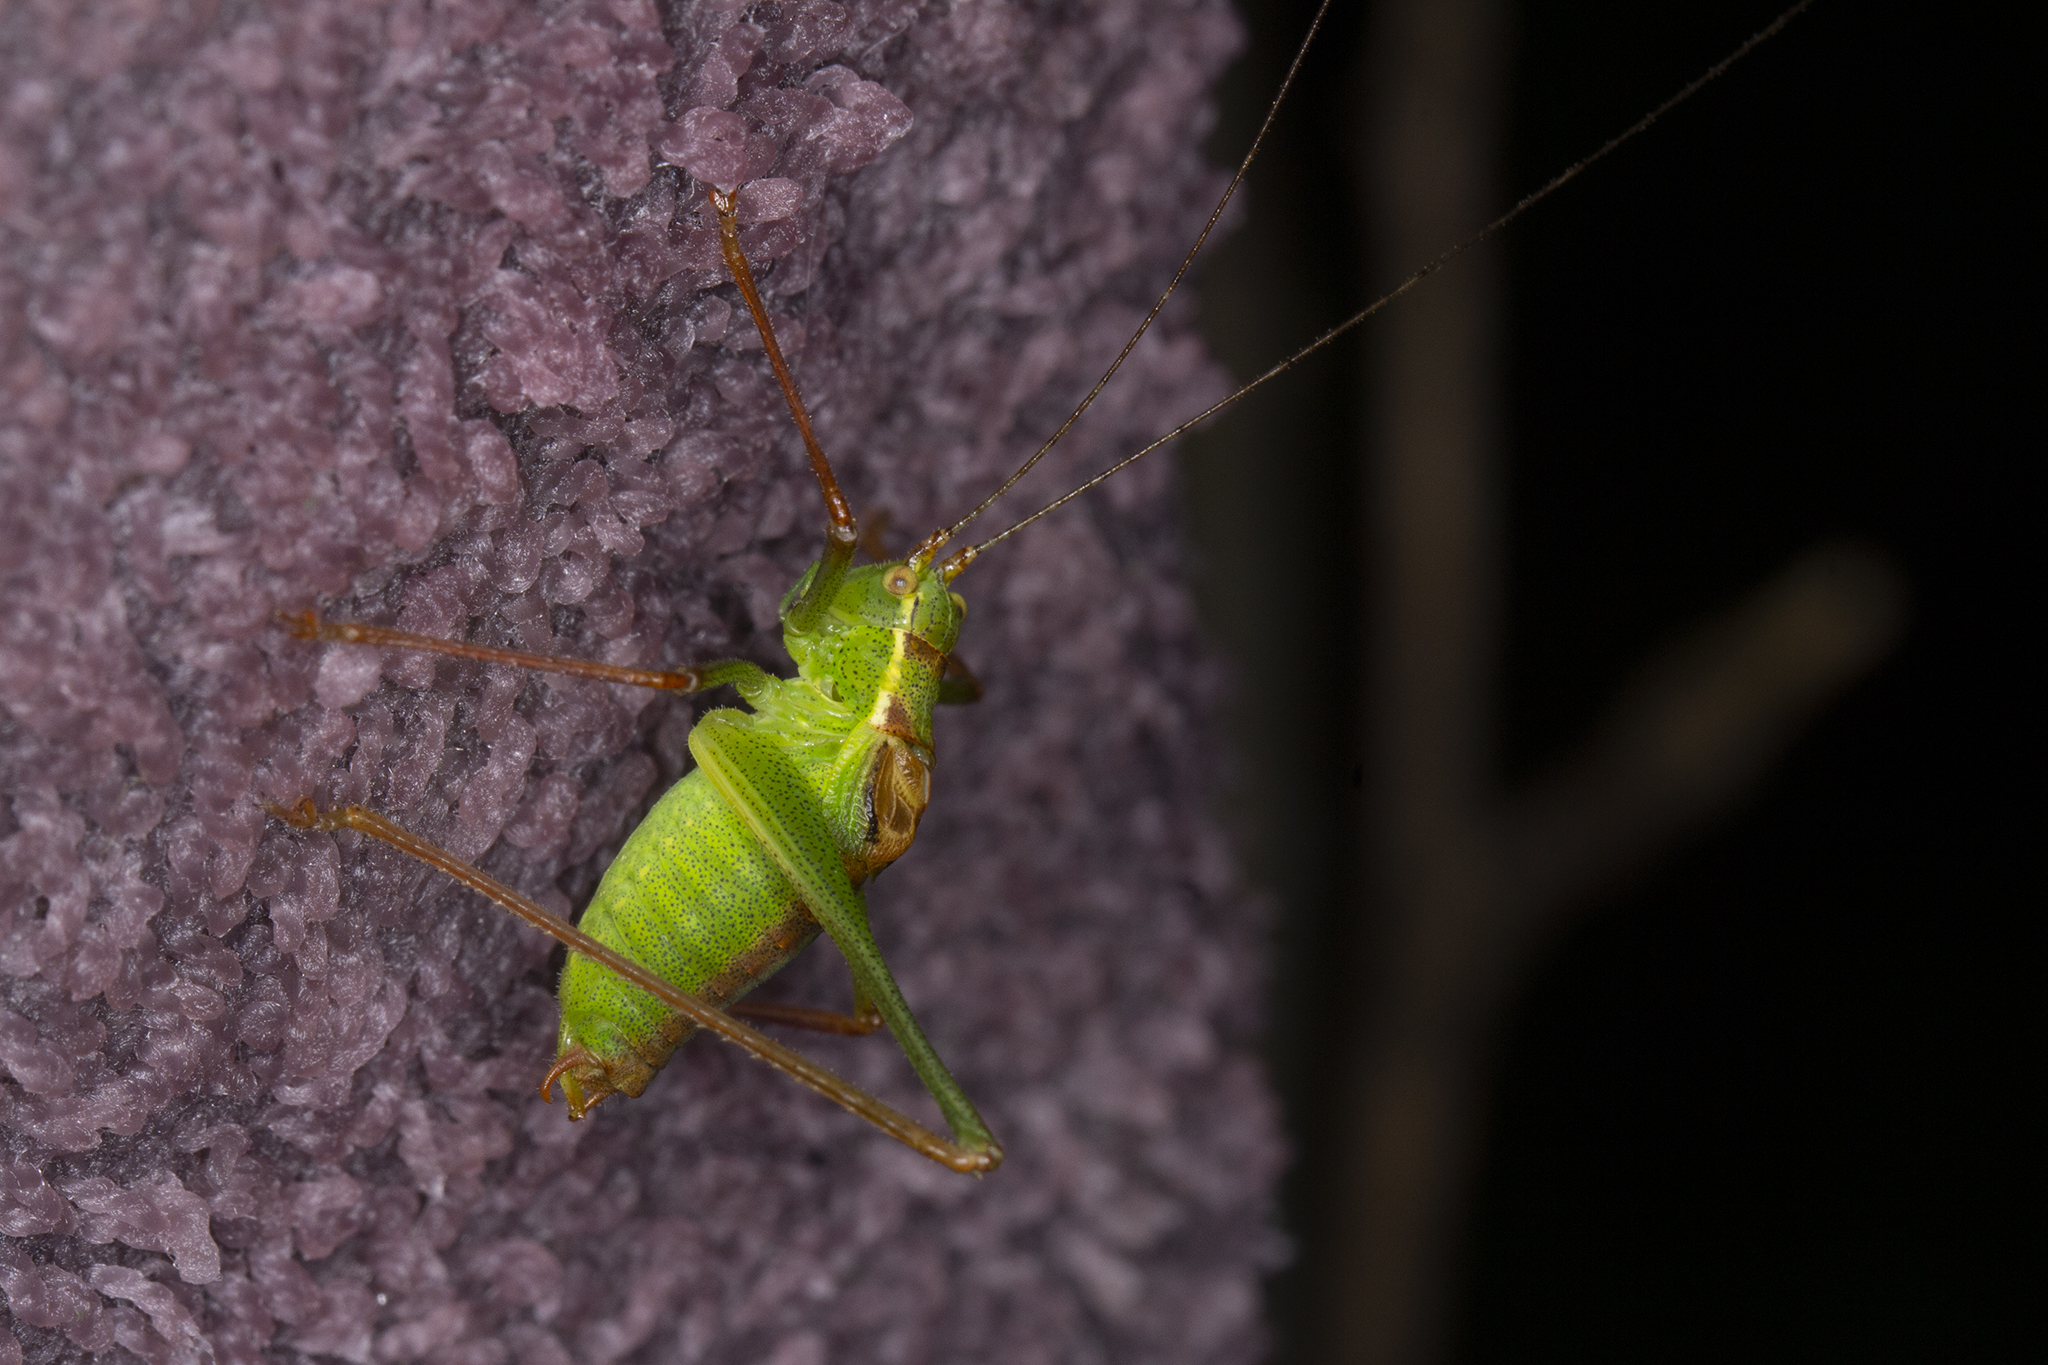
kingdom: Animalia
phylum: Arthropoda
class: Insecta
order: Orthoptera
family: Tettigoniidae
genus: Leptophyes
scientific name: Leptophyes punctatissima
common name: Speckled bush-cricket
